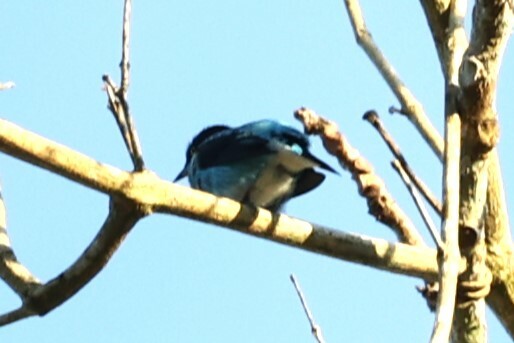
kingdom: Animalia
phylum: Chordata
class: Aves
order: Passeriformes
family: Thraupidae
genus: Dacnis
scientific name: Dacnis lineata
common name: Black-faced dacnis
